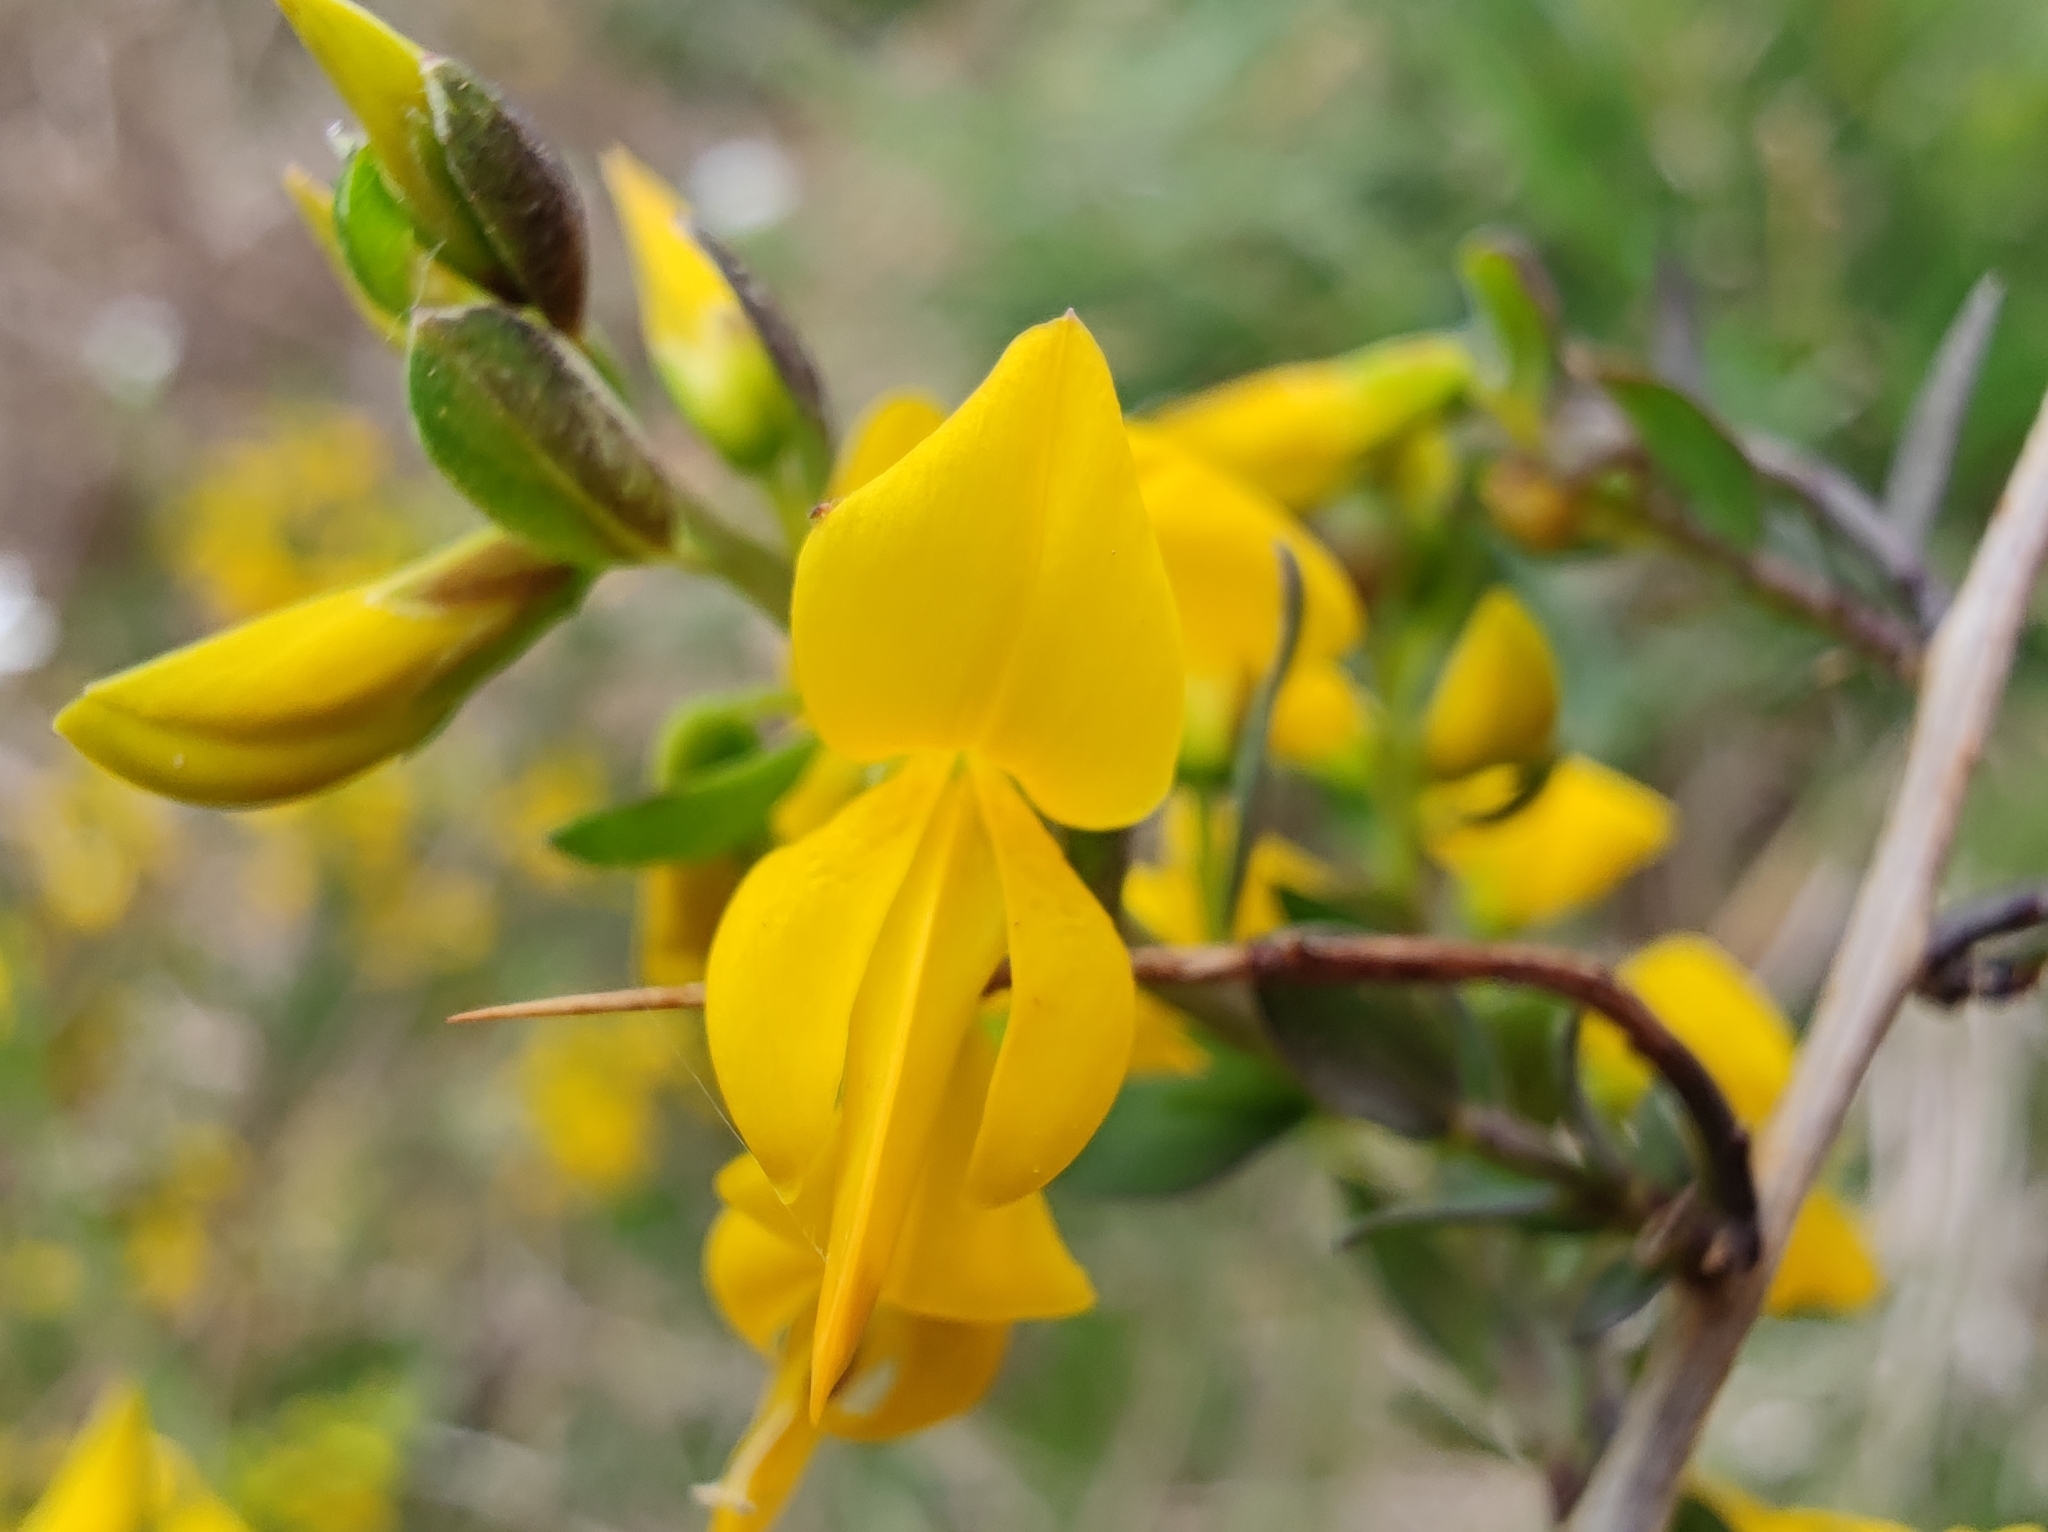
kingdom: Plantae
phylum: Tracheophyta
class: Magnoliopsida
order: Fabales
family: Fabaceae
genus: Genista
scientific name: Genista anglica
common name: Petty whin
